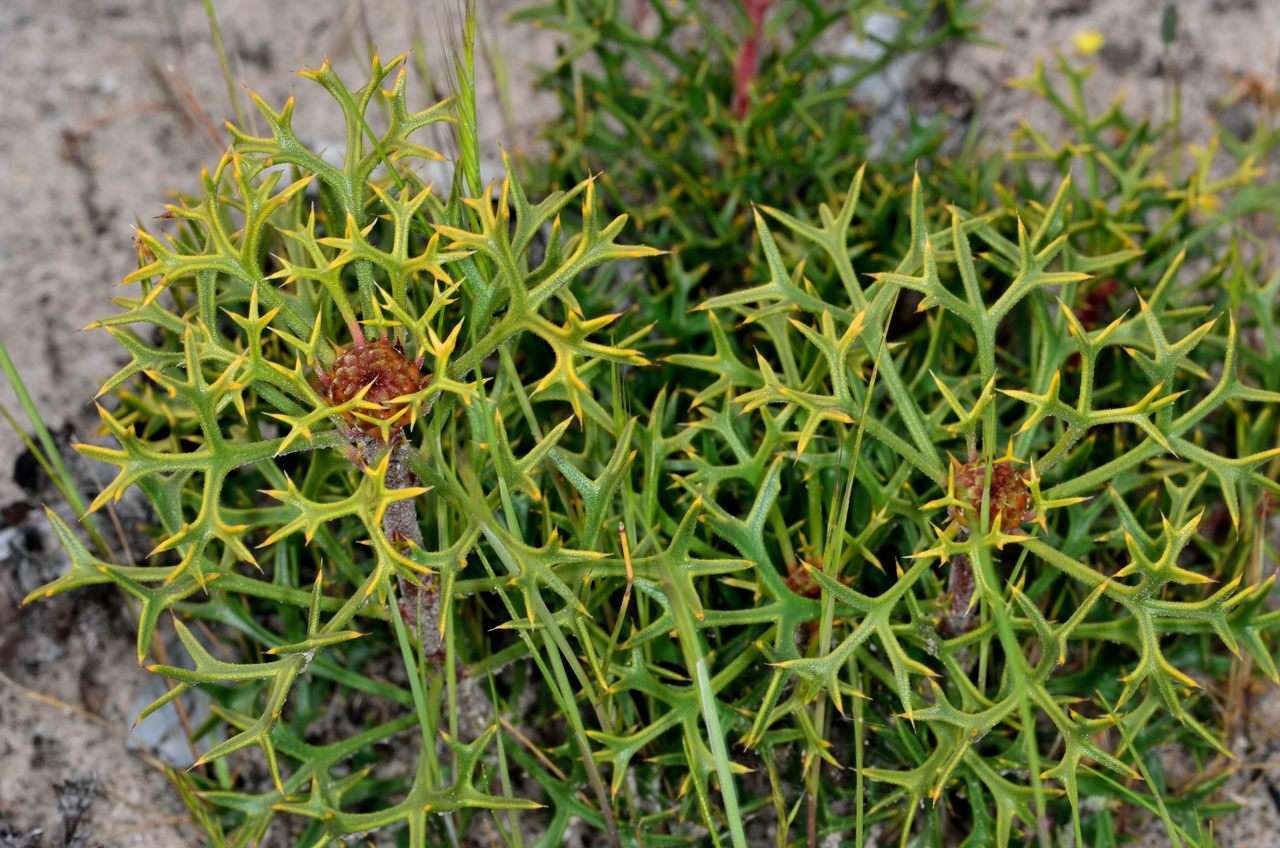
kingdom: Plantae
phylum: Tracheophyta
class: Magnoliopsida
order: Proteales
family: Proteaceae
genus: Isopogon
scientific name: Isopogon ceratophyllus
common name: Horny cone-bush
